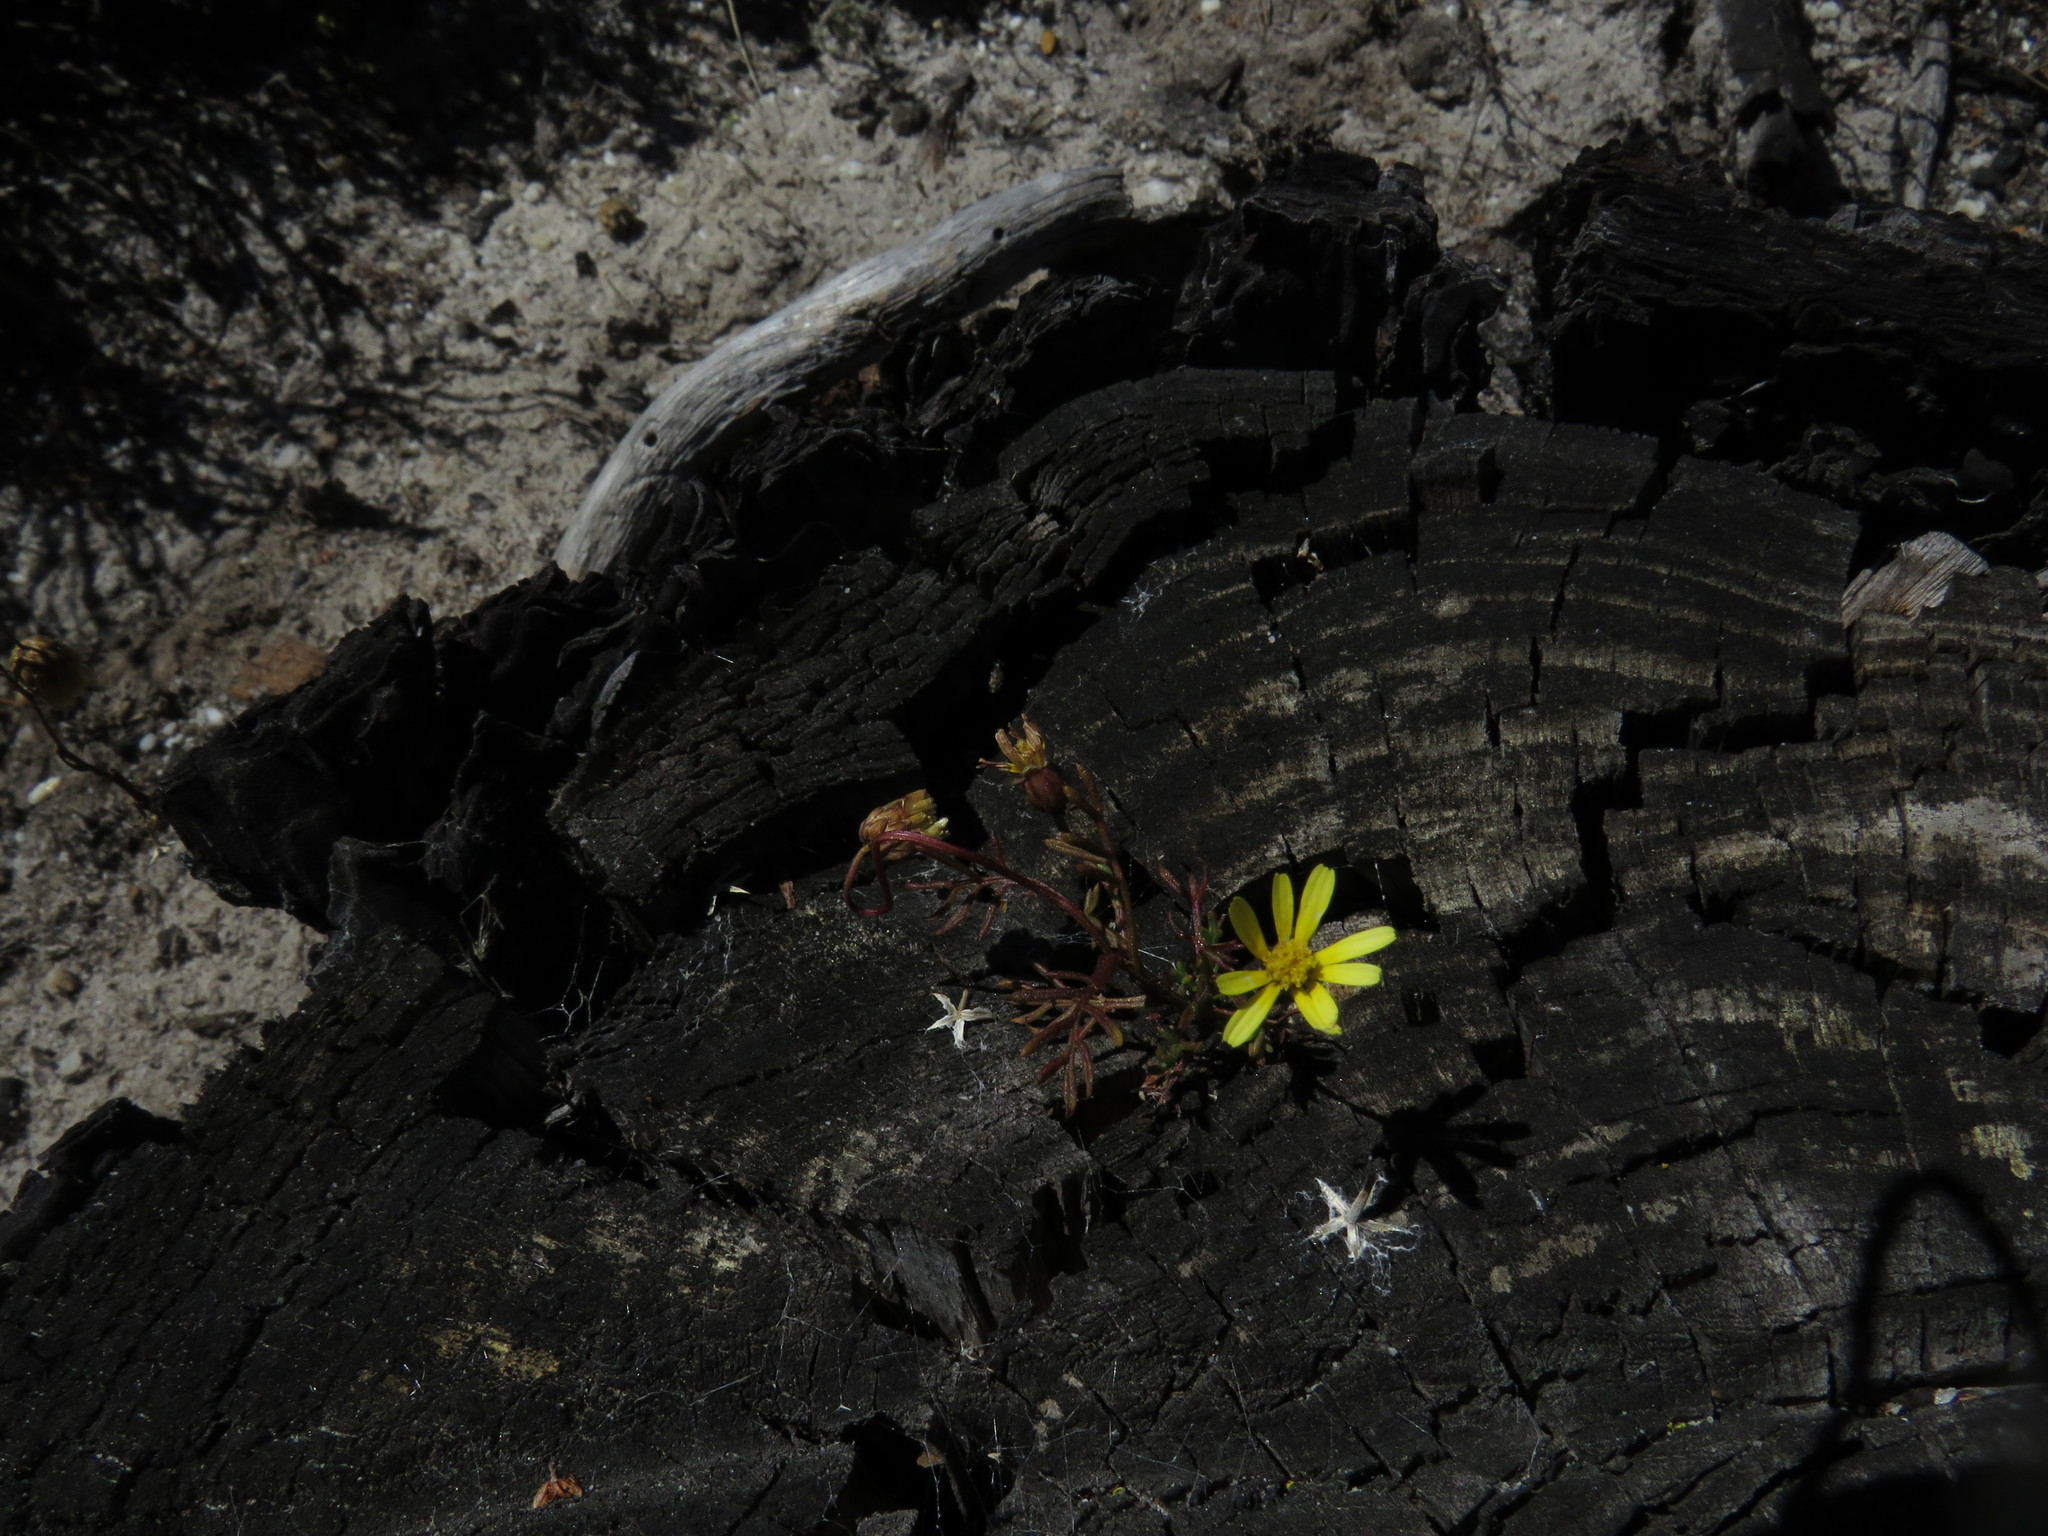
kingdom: Plantae
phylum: Tracheophyta
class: Magnoliopsida
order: Asterales
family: Asteraceae
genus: Ursinia
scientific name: Ursinia anthemoides
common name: Ursinia
